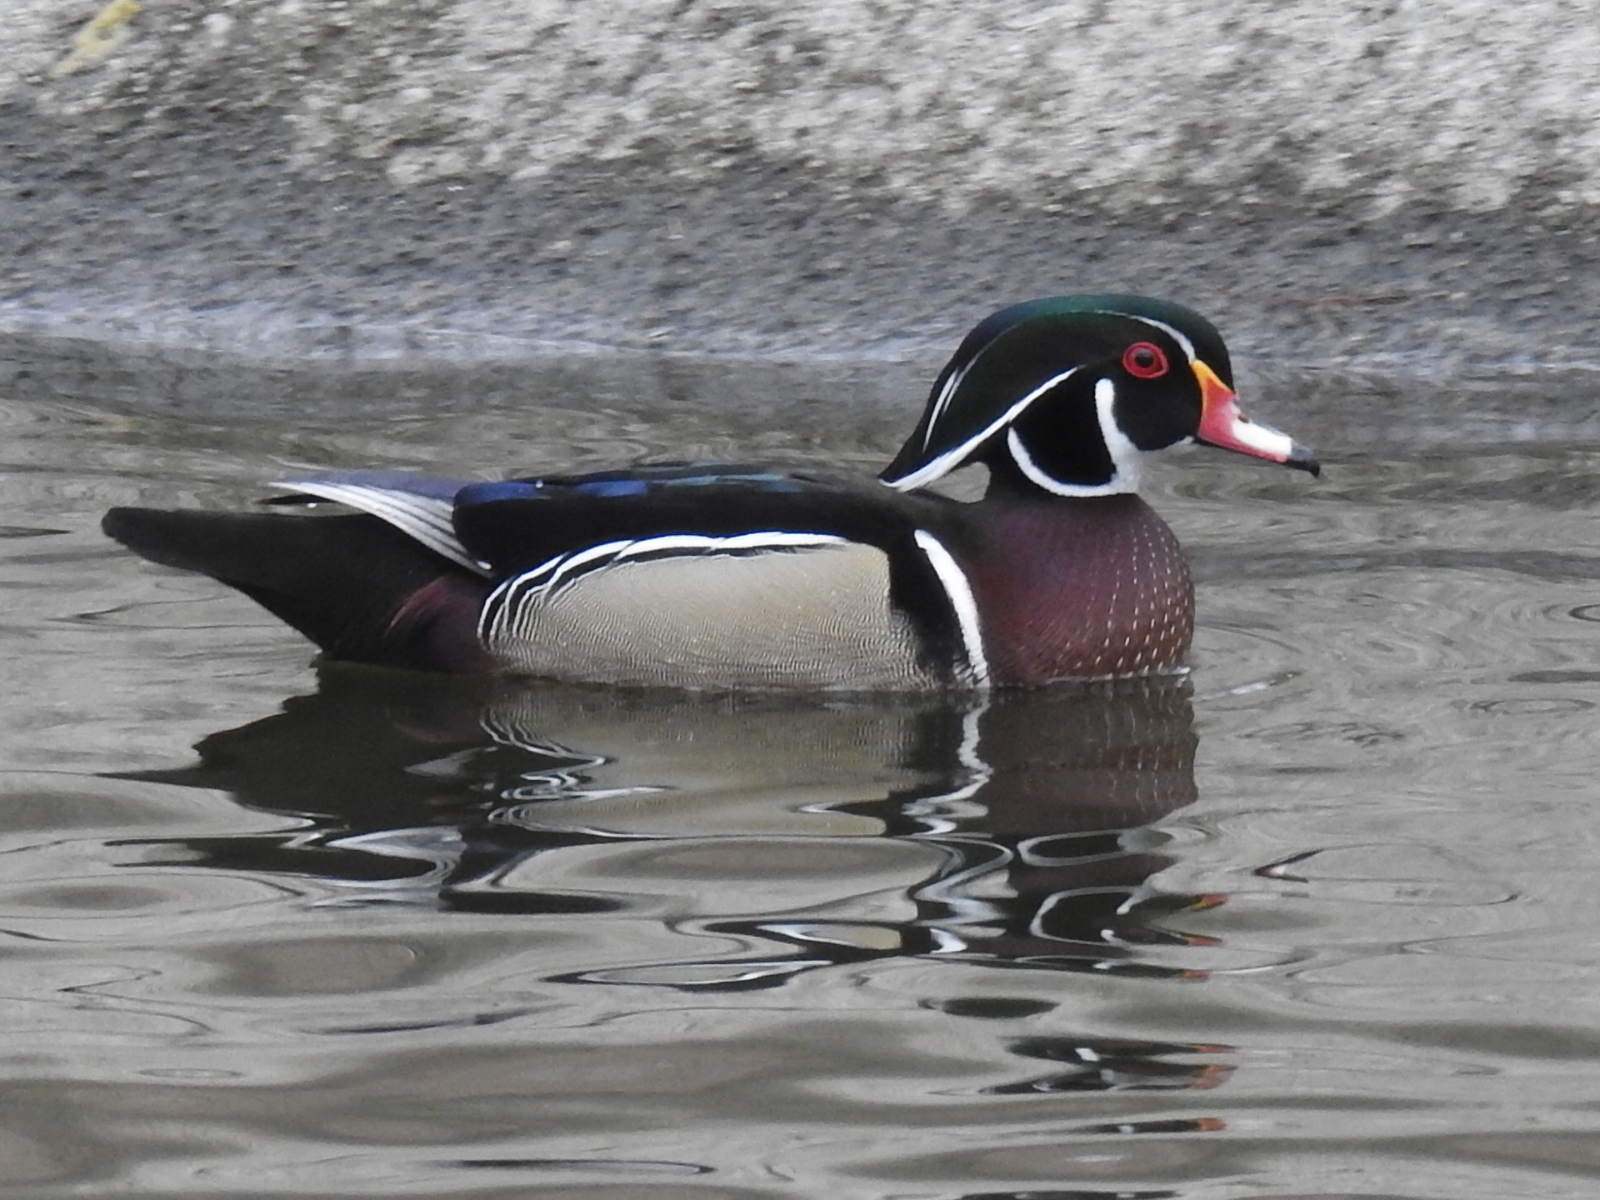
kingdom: Animalia
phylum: Chordata
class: Aves
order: Anseriformes
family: Anatidae
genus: Aix
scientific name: Aix sponsa
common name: Wood duck
